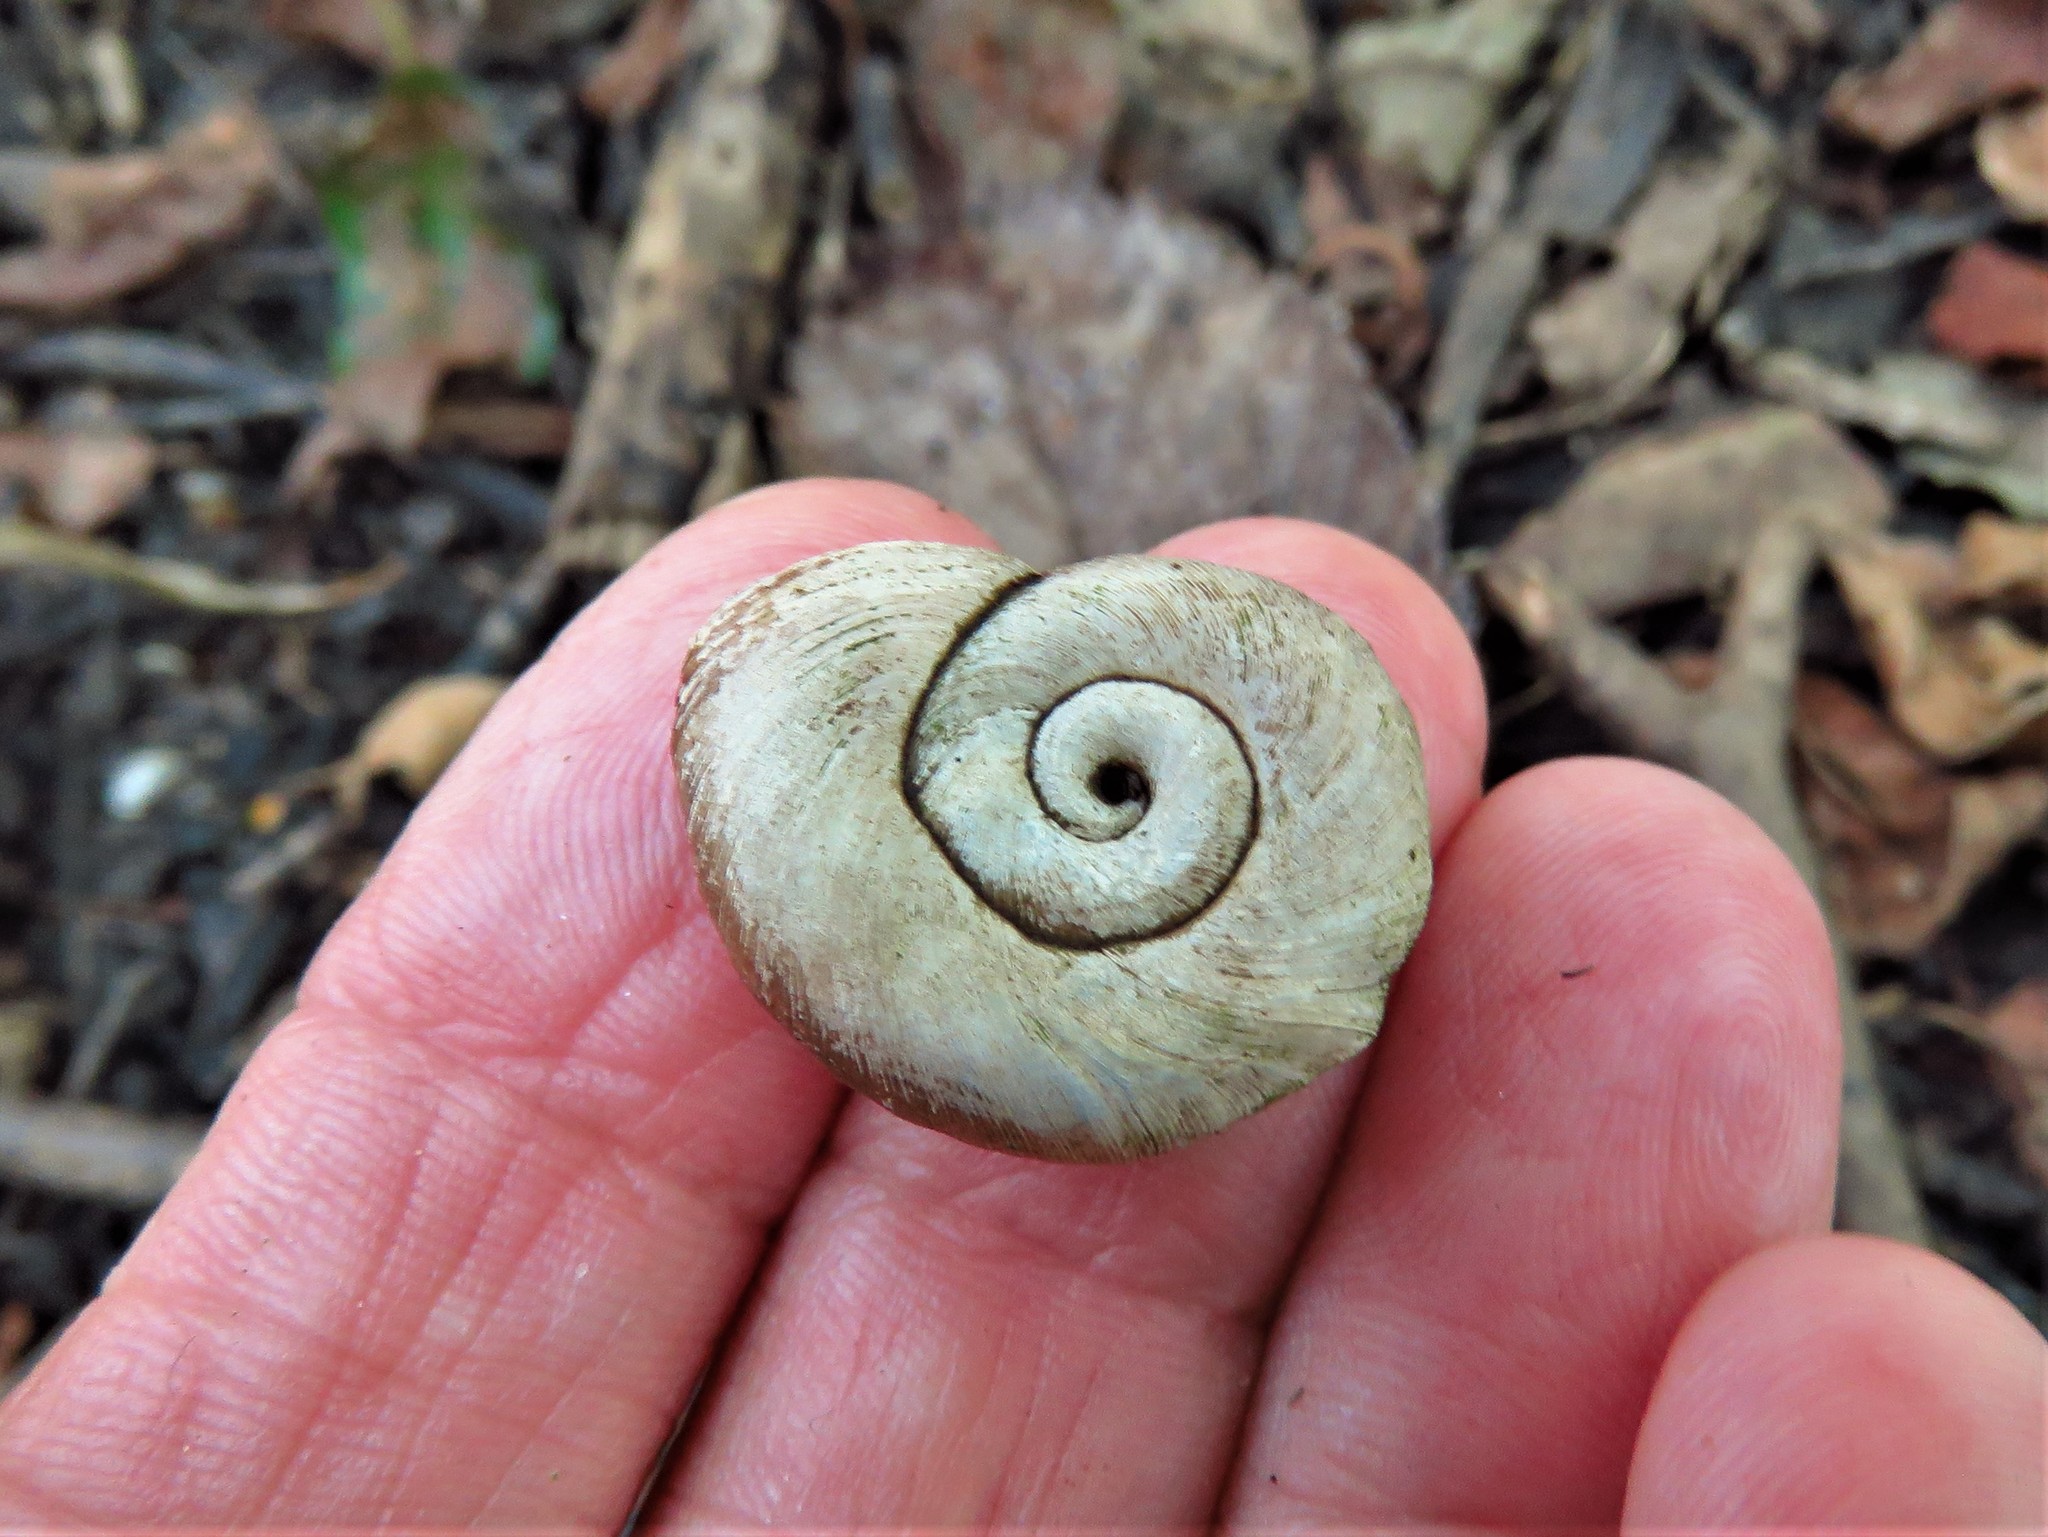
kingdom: Animalia
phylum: Mollusca
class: Gastropoda
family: Planorbidae
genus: Planorbella
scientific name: Planorbella trivolvis
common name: Marsh rams-horn
